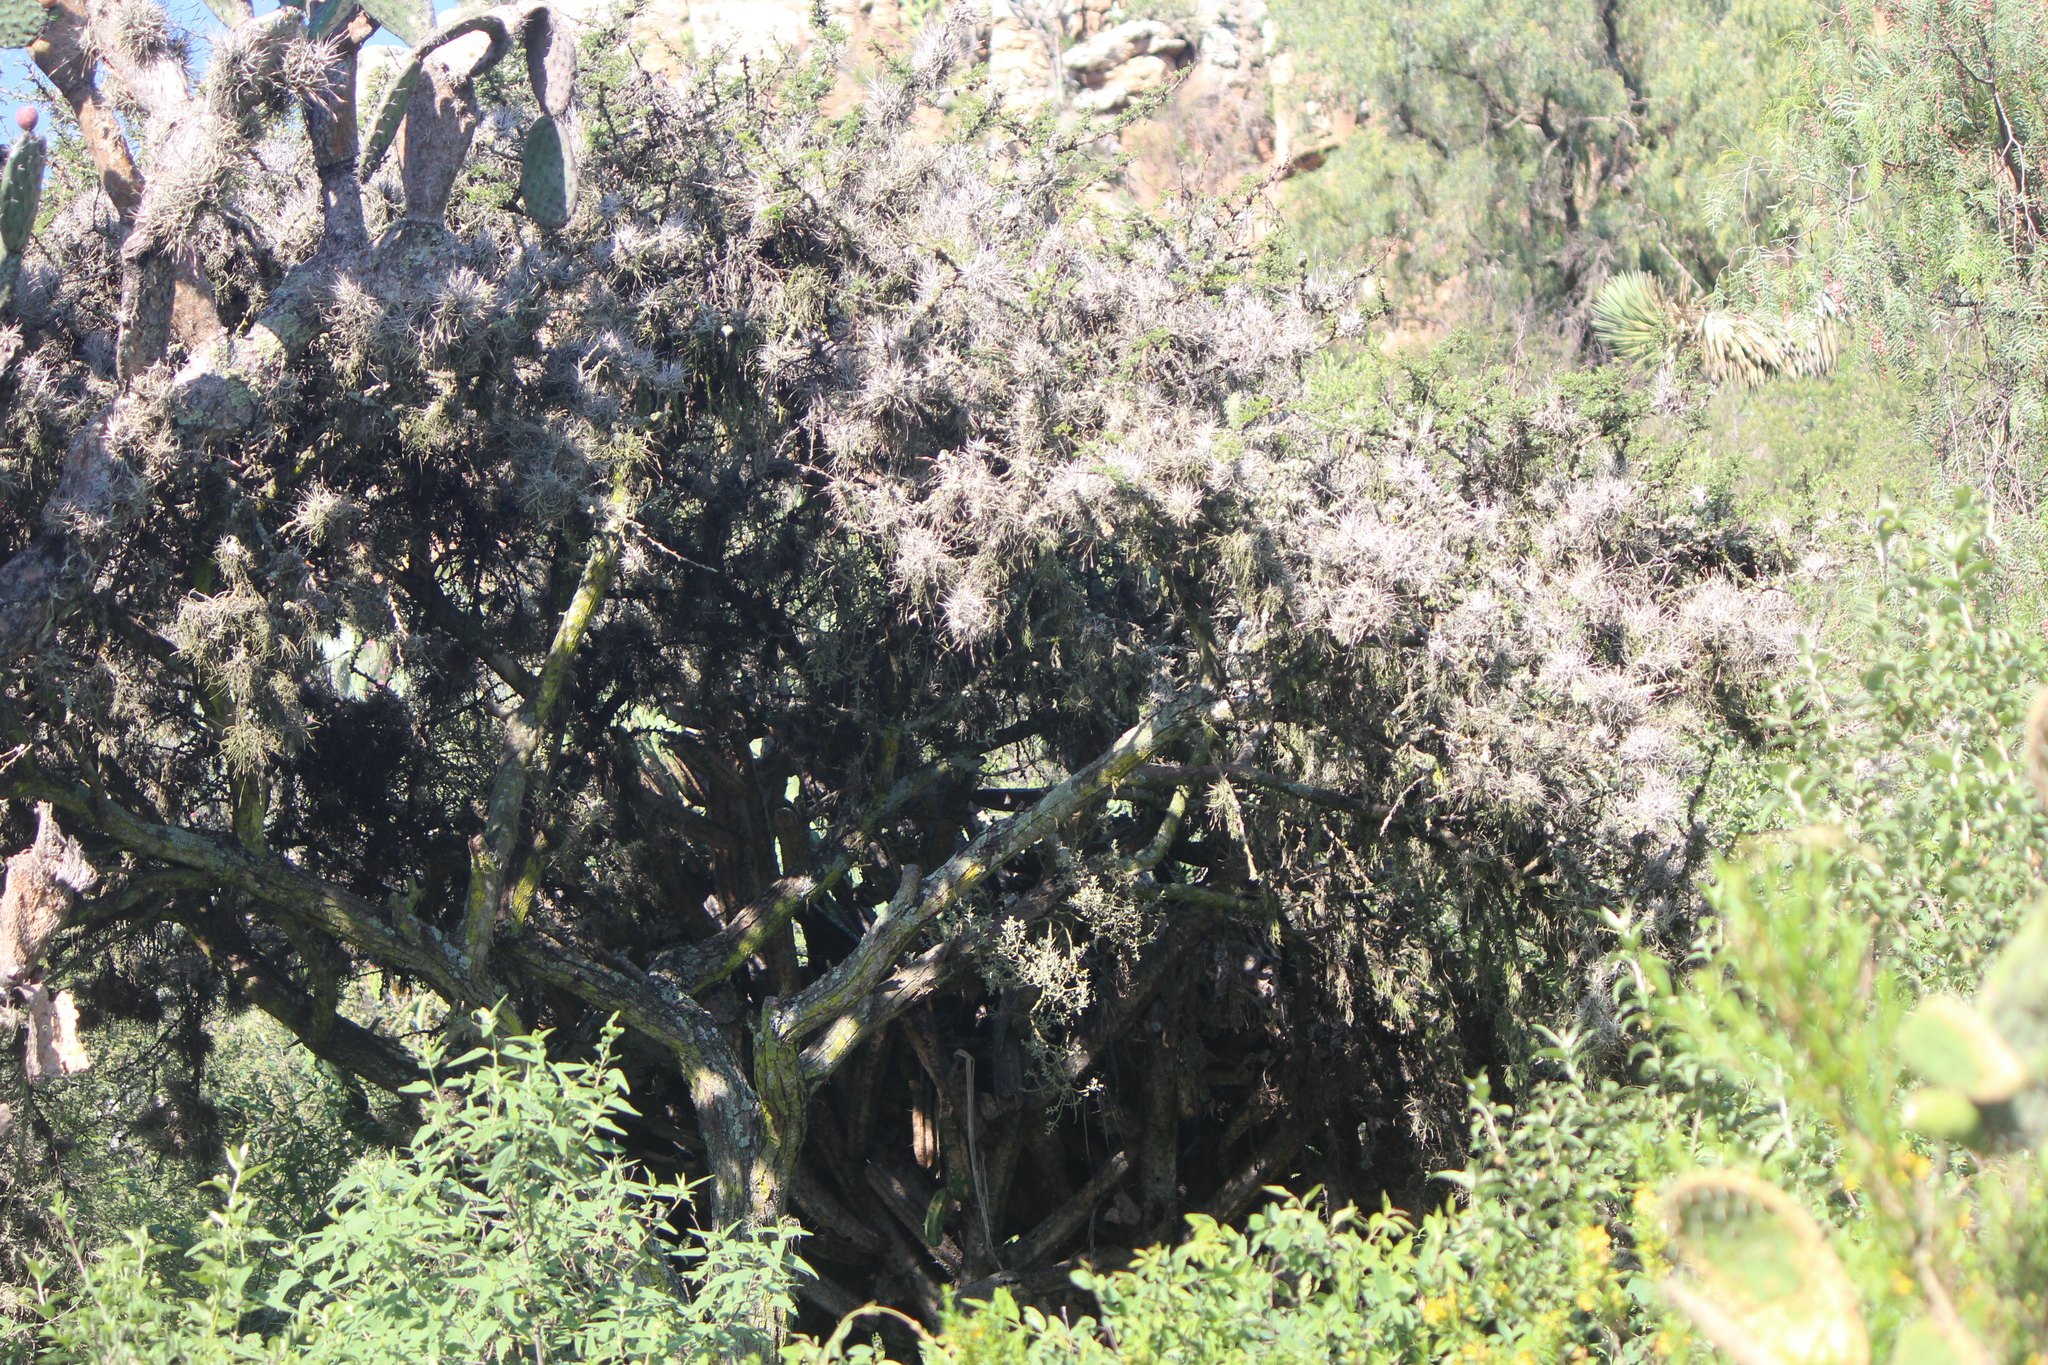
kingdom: Plantae
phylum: Tracheophyta
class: Liliopsida
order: Poales
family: Bromeliaceae
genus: Tillandsia
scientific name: Tillandsia recurvata
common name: Small ballmoss
